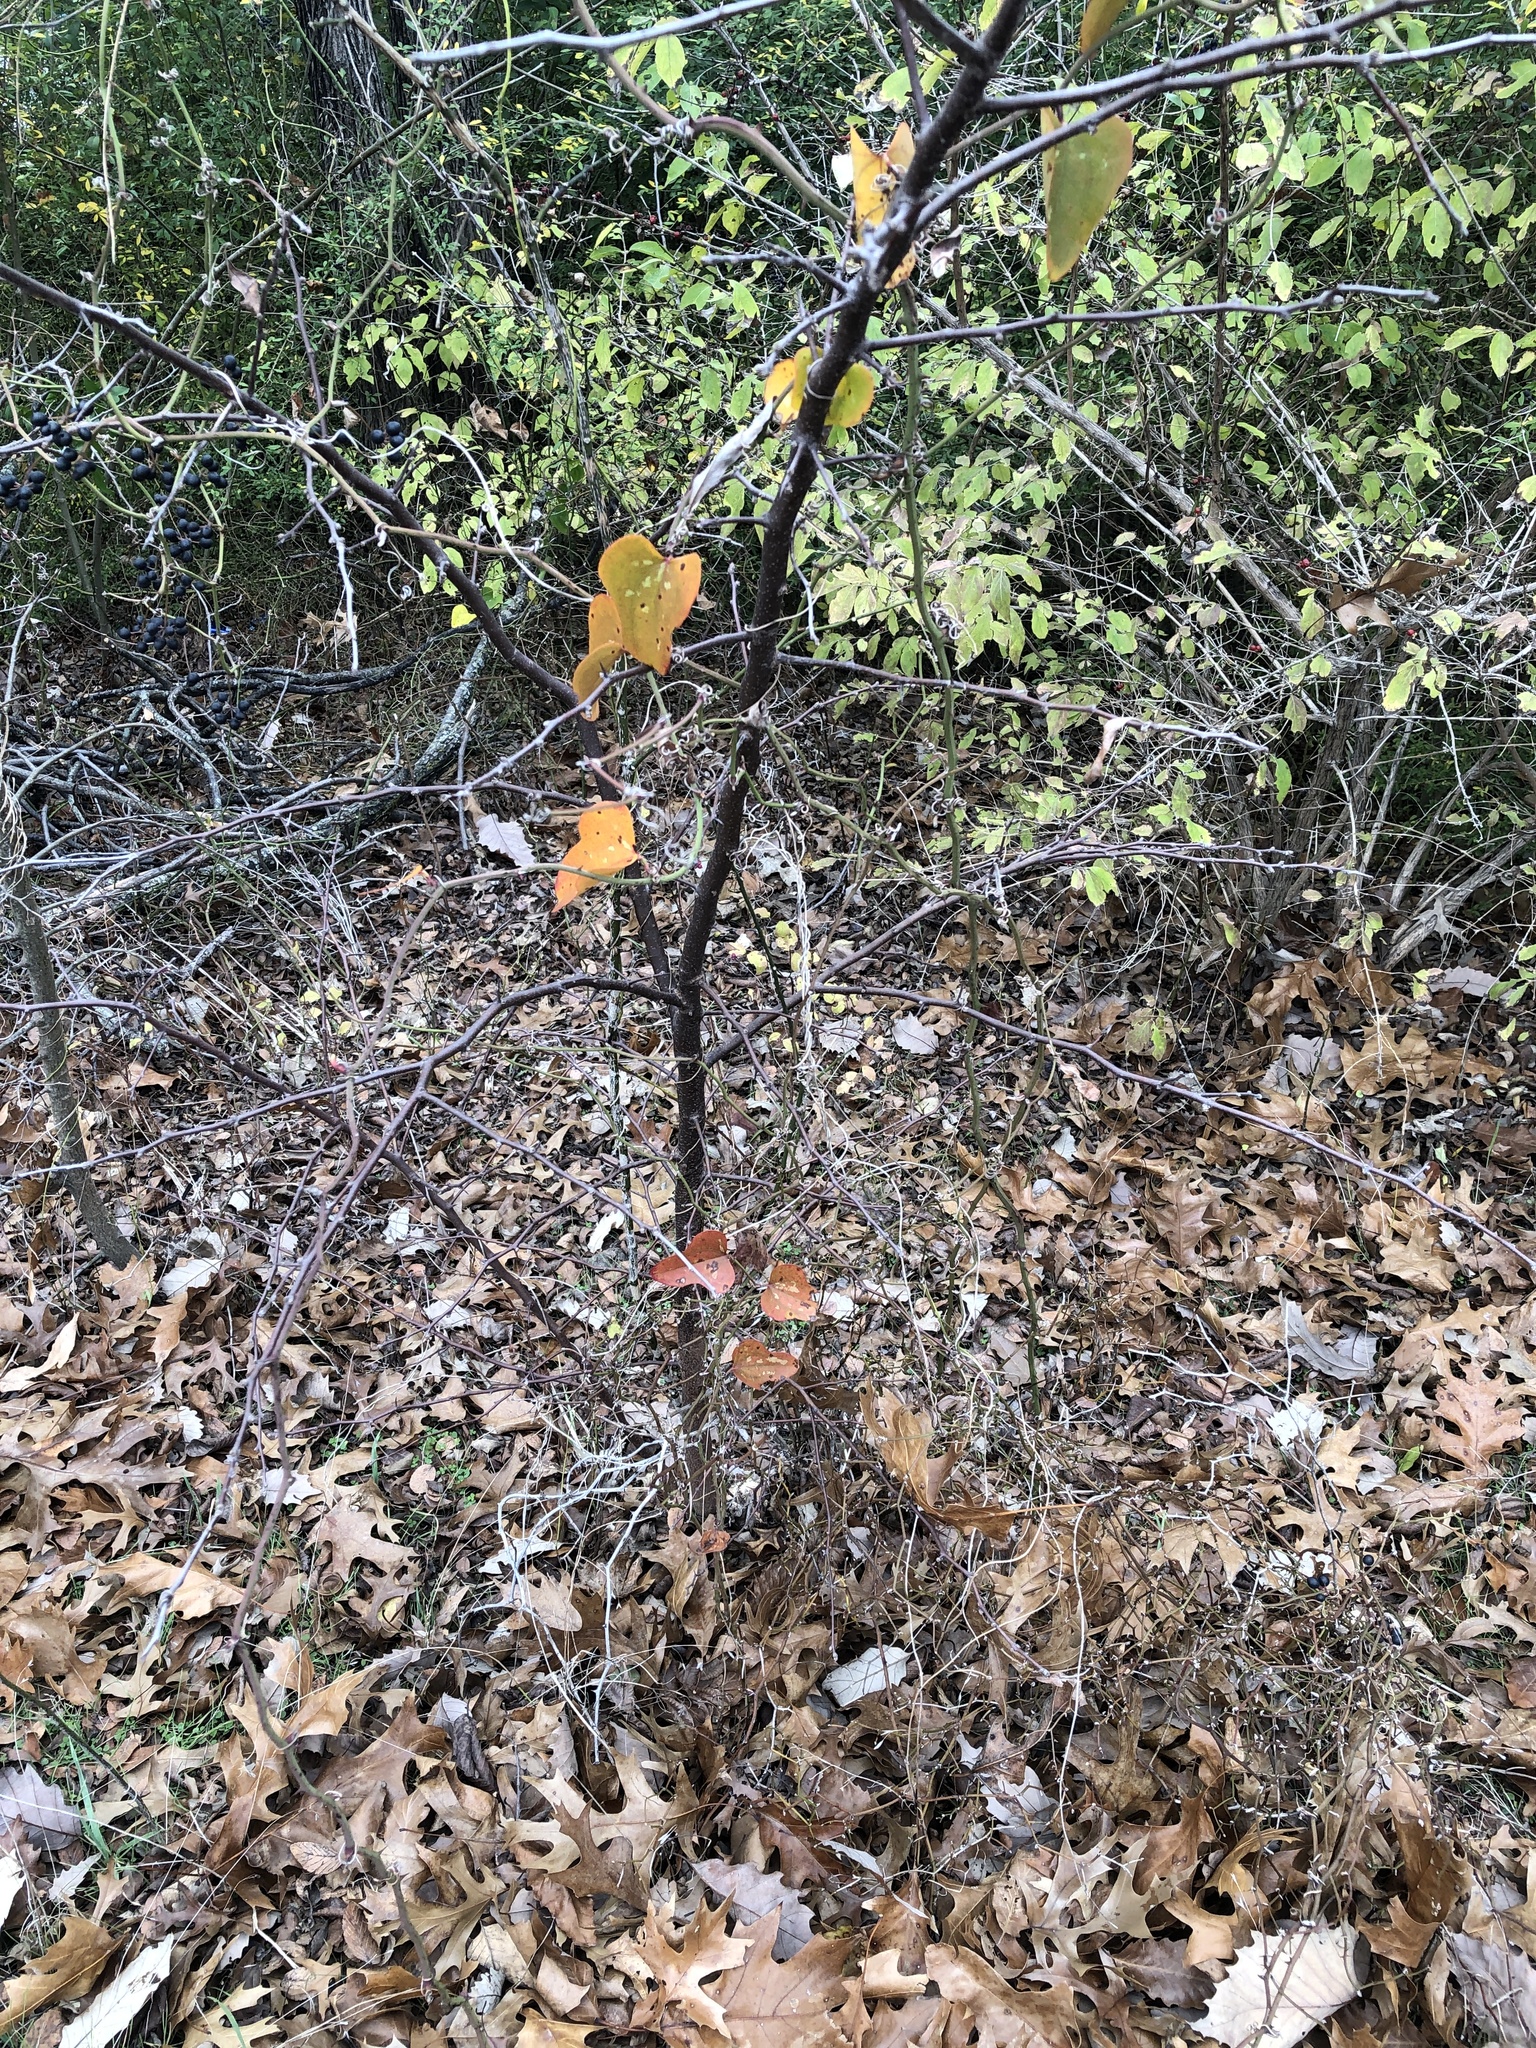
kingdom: Plantae
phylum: Tracheophyta
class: Liliopsida
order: Liliales
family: Smilacaceae
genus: Smilax
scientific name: Smilax bona-nox
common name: Catbrier
